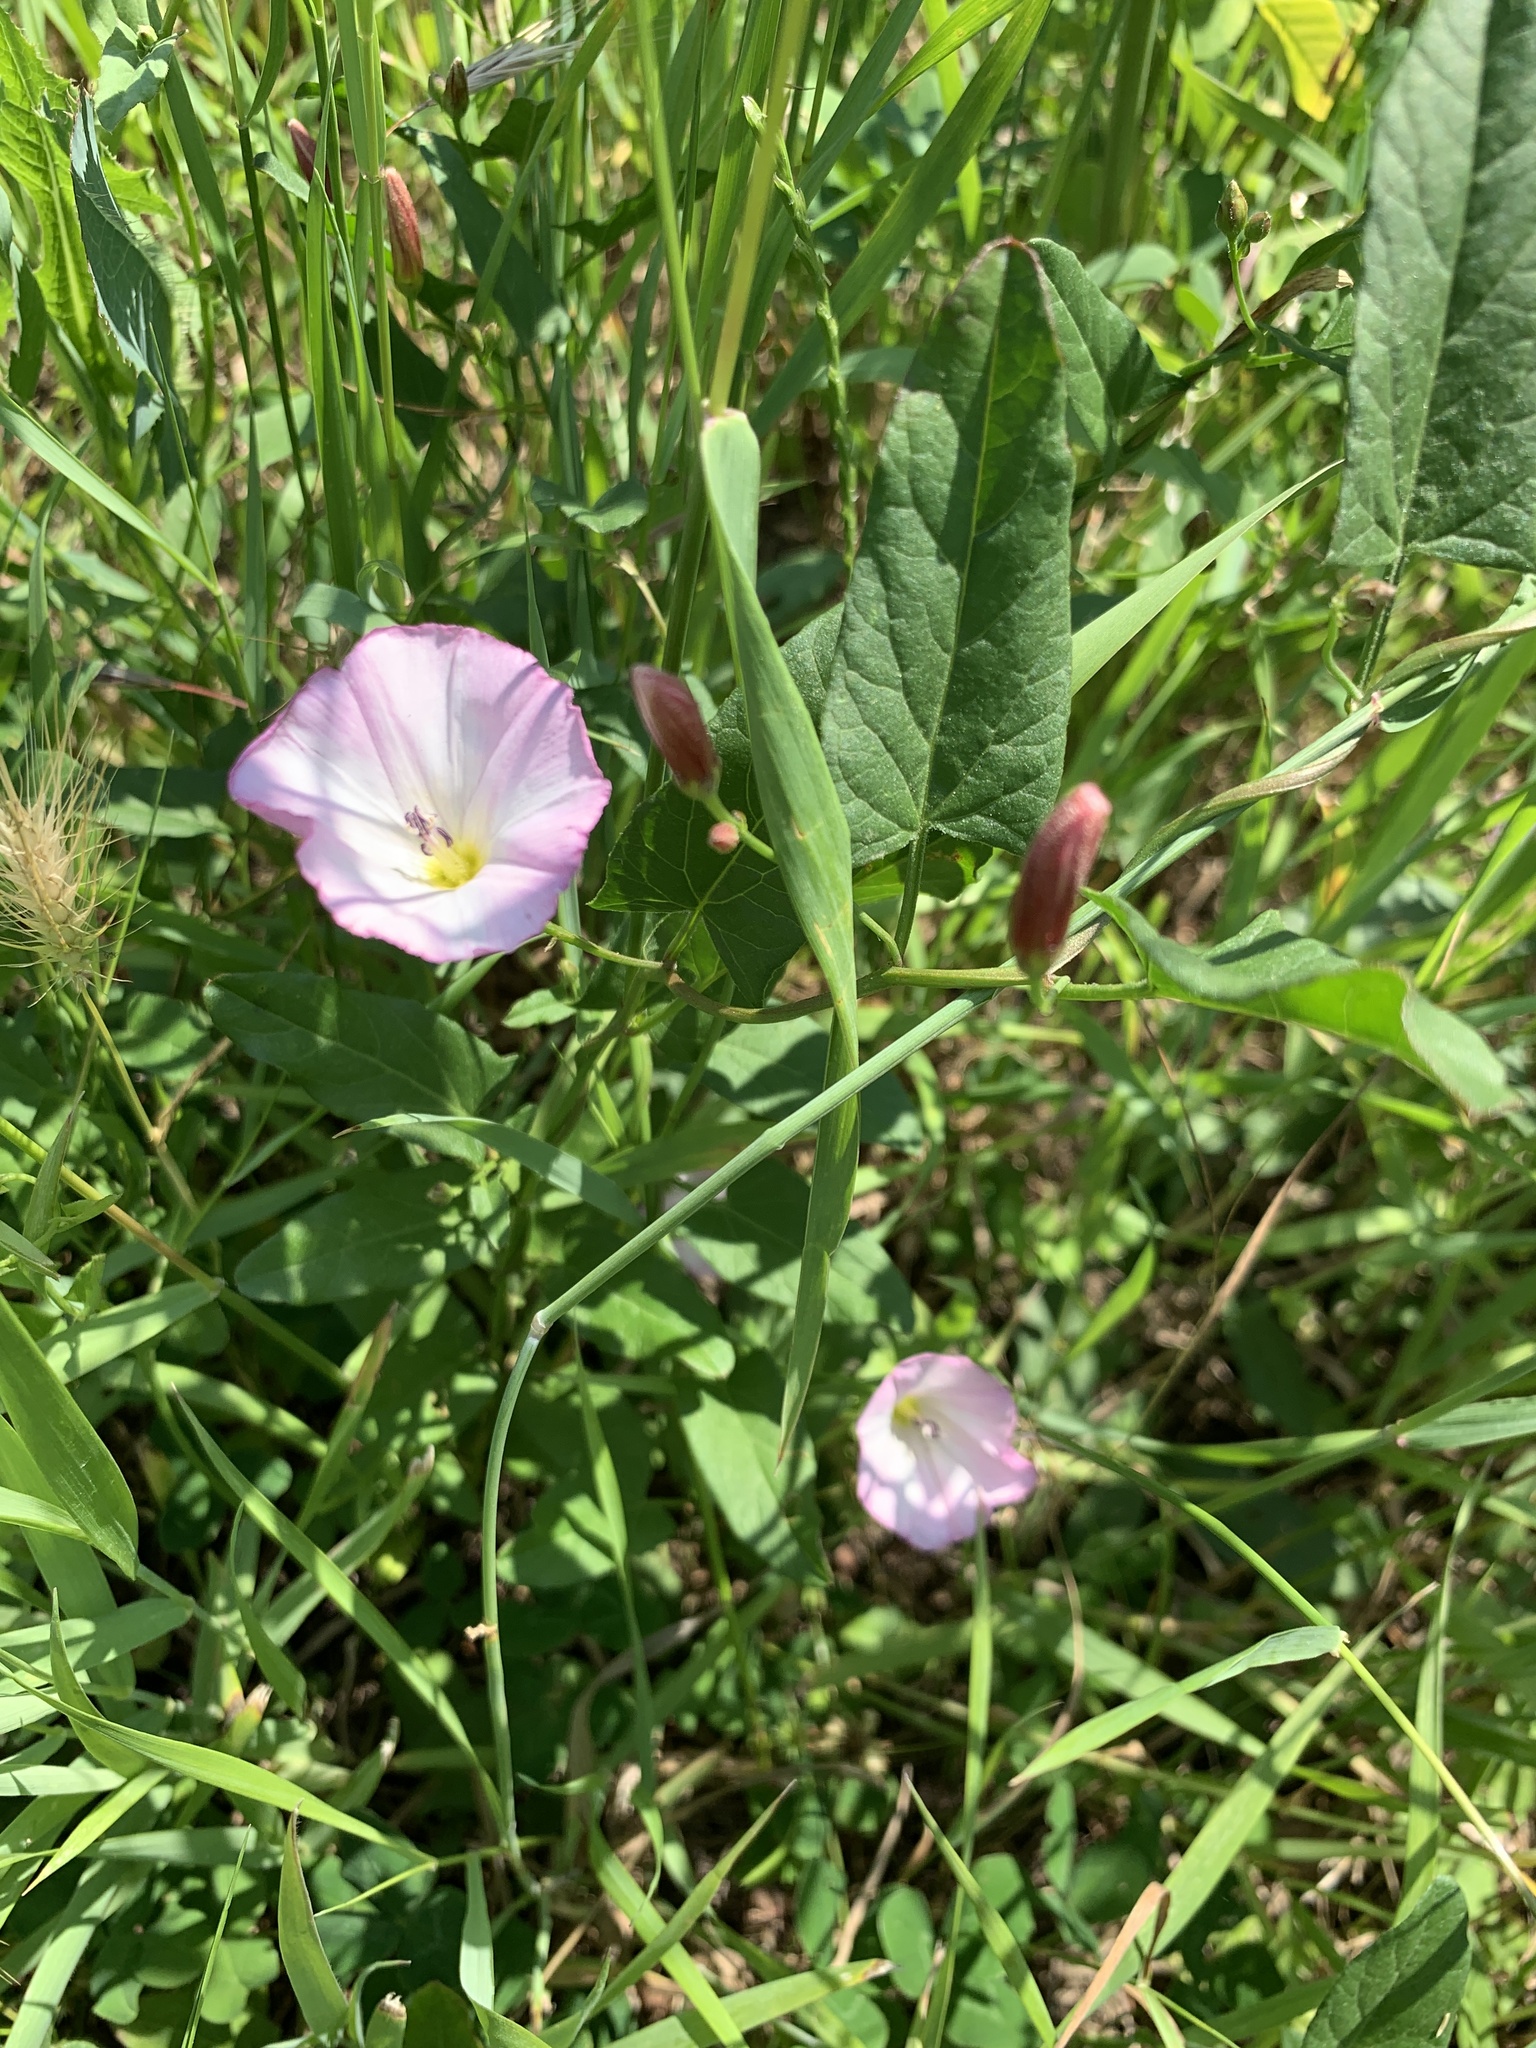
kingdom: Plantae
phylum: Tracheophyta
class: Magnoliopsida
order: Solanales
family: Convolvulaceae
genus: Convolvulus
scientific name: Convolvulus arvensis
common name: Field bindweed
